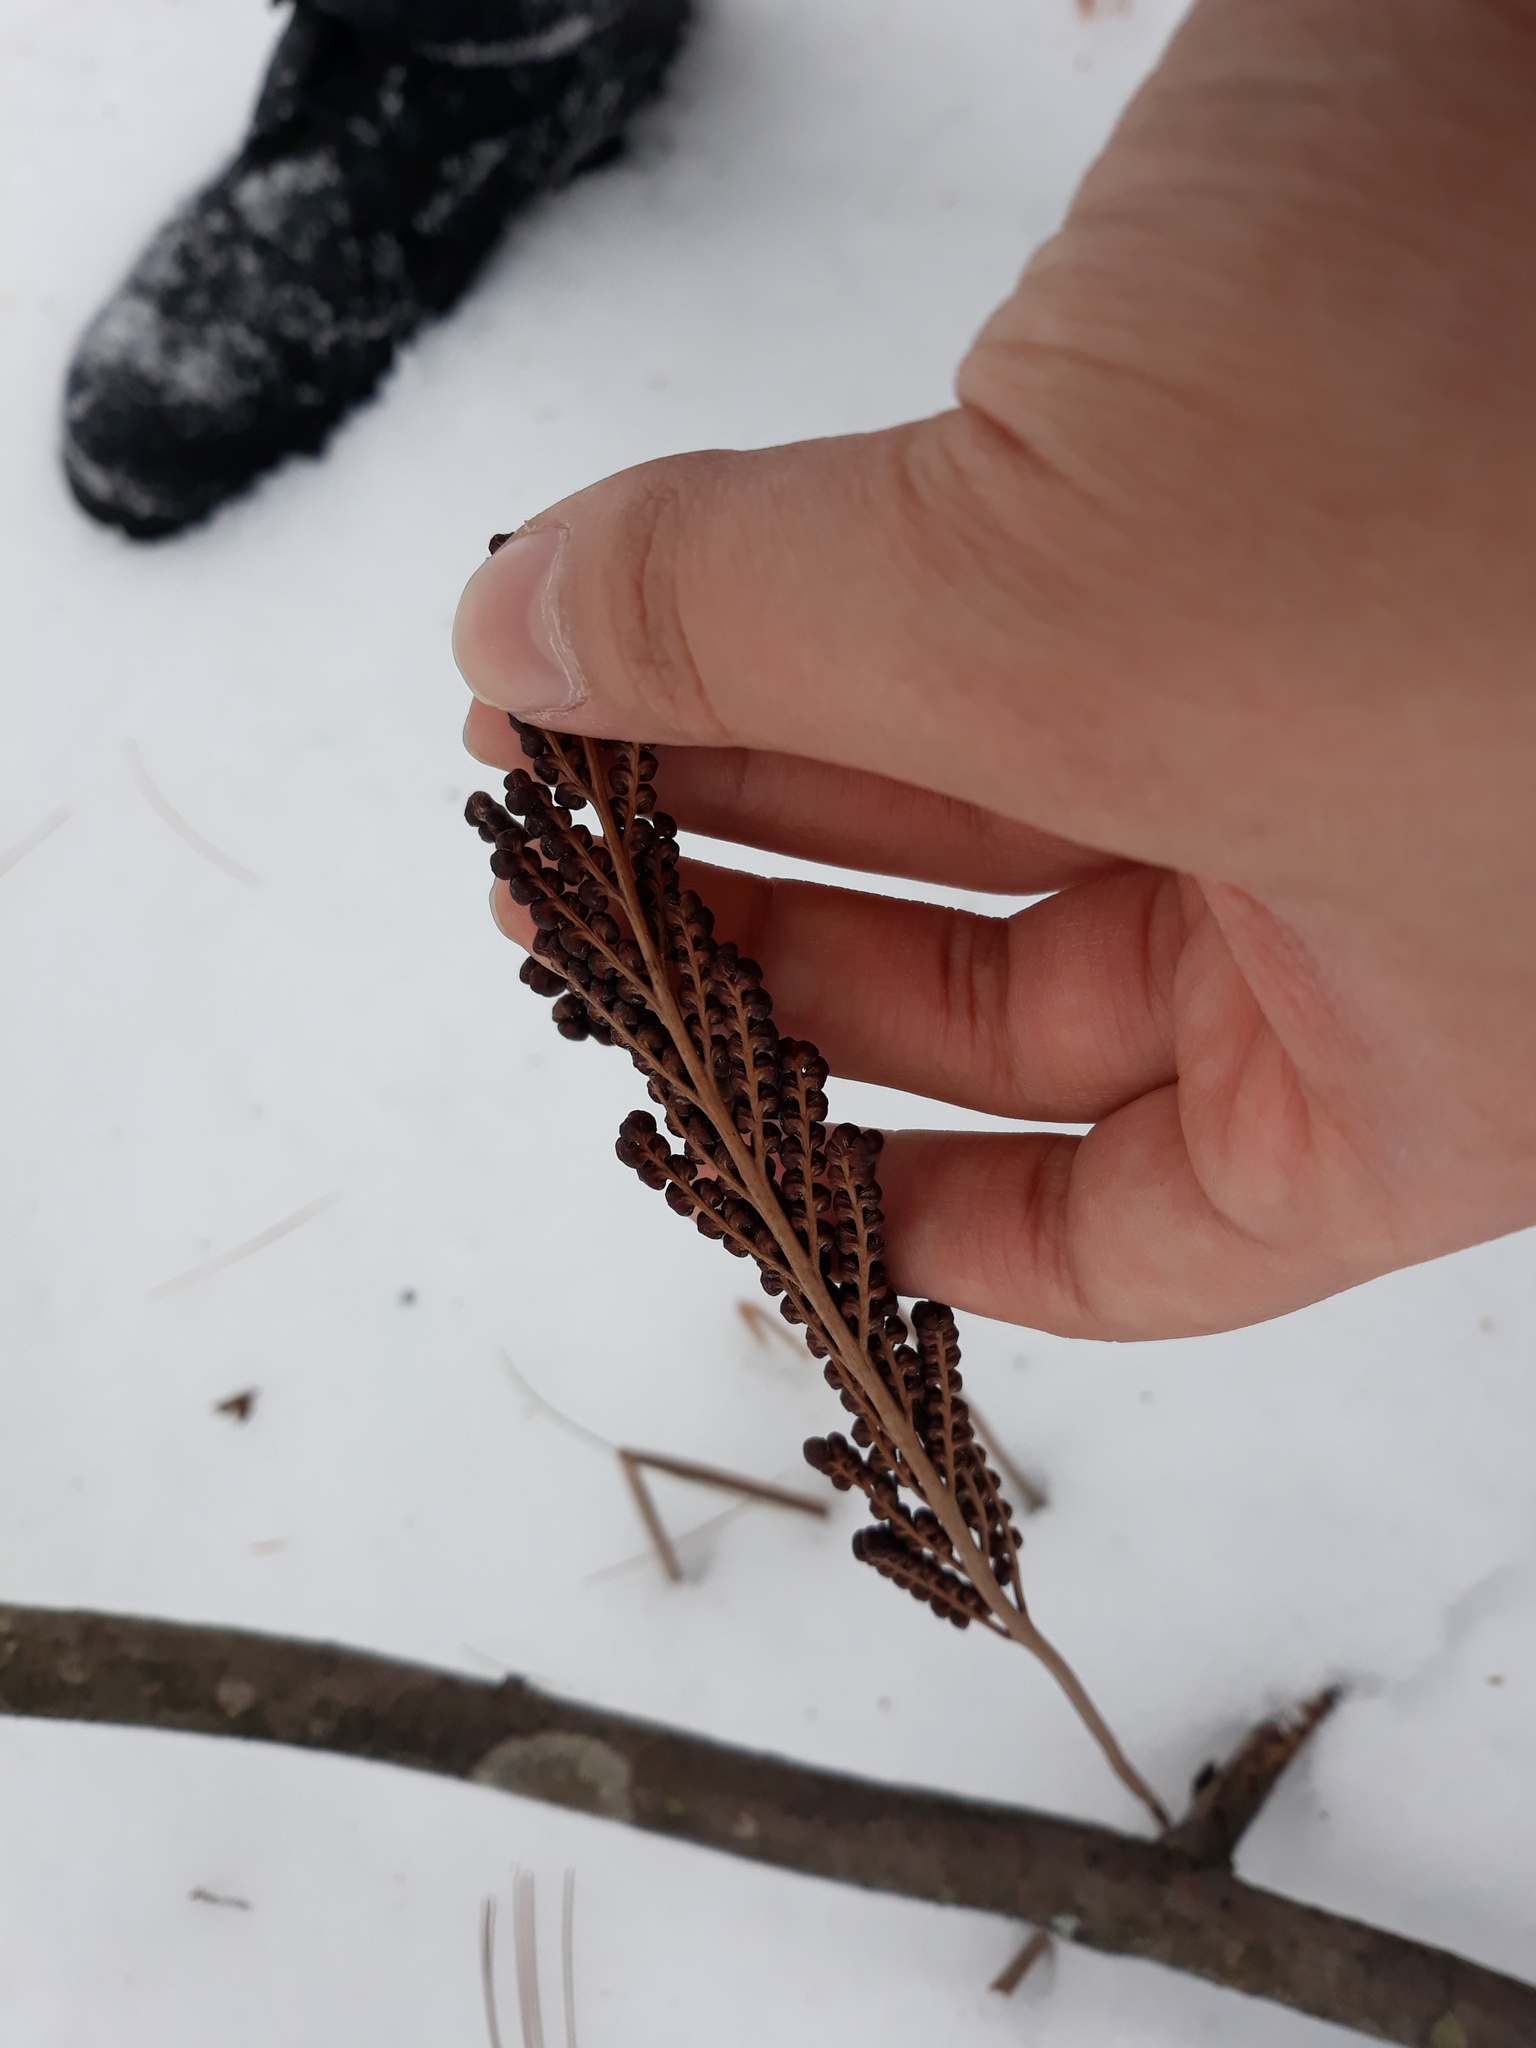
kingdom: Plantae
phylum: Tracheophyta
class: Polypodiopsida
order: Polypodiales
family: Onocleaceae
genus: Onoclea
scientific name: Onoclea sensibilis
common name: Sensitive fern
